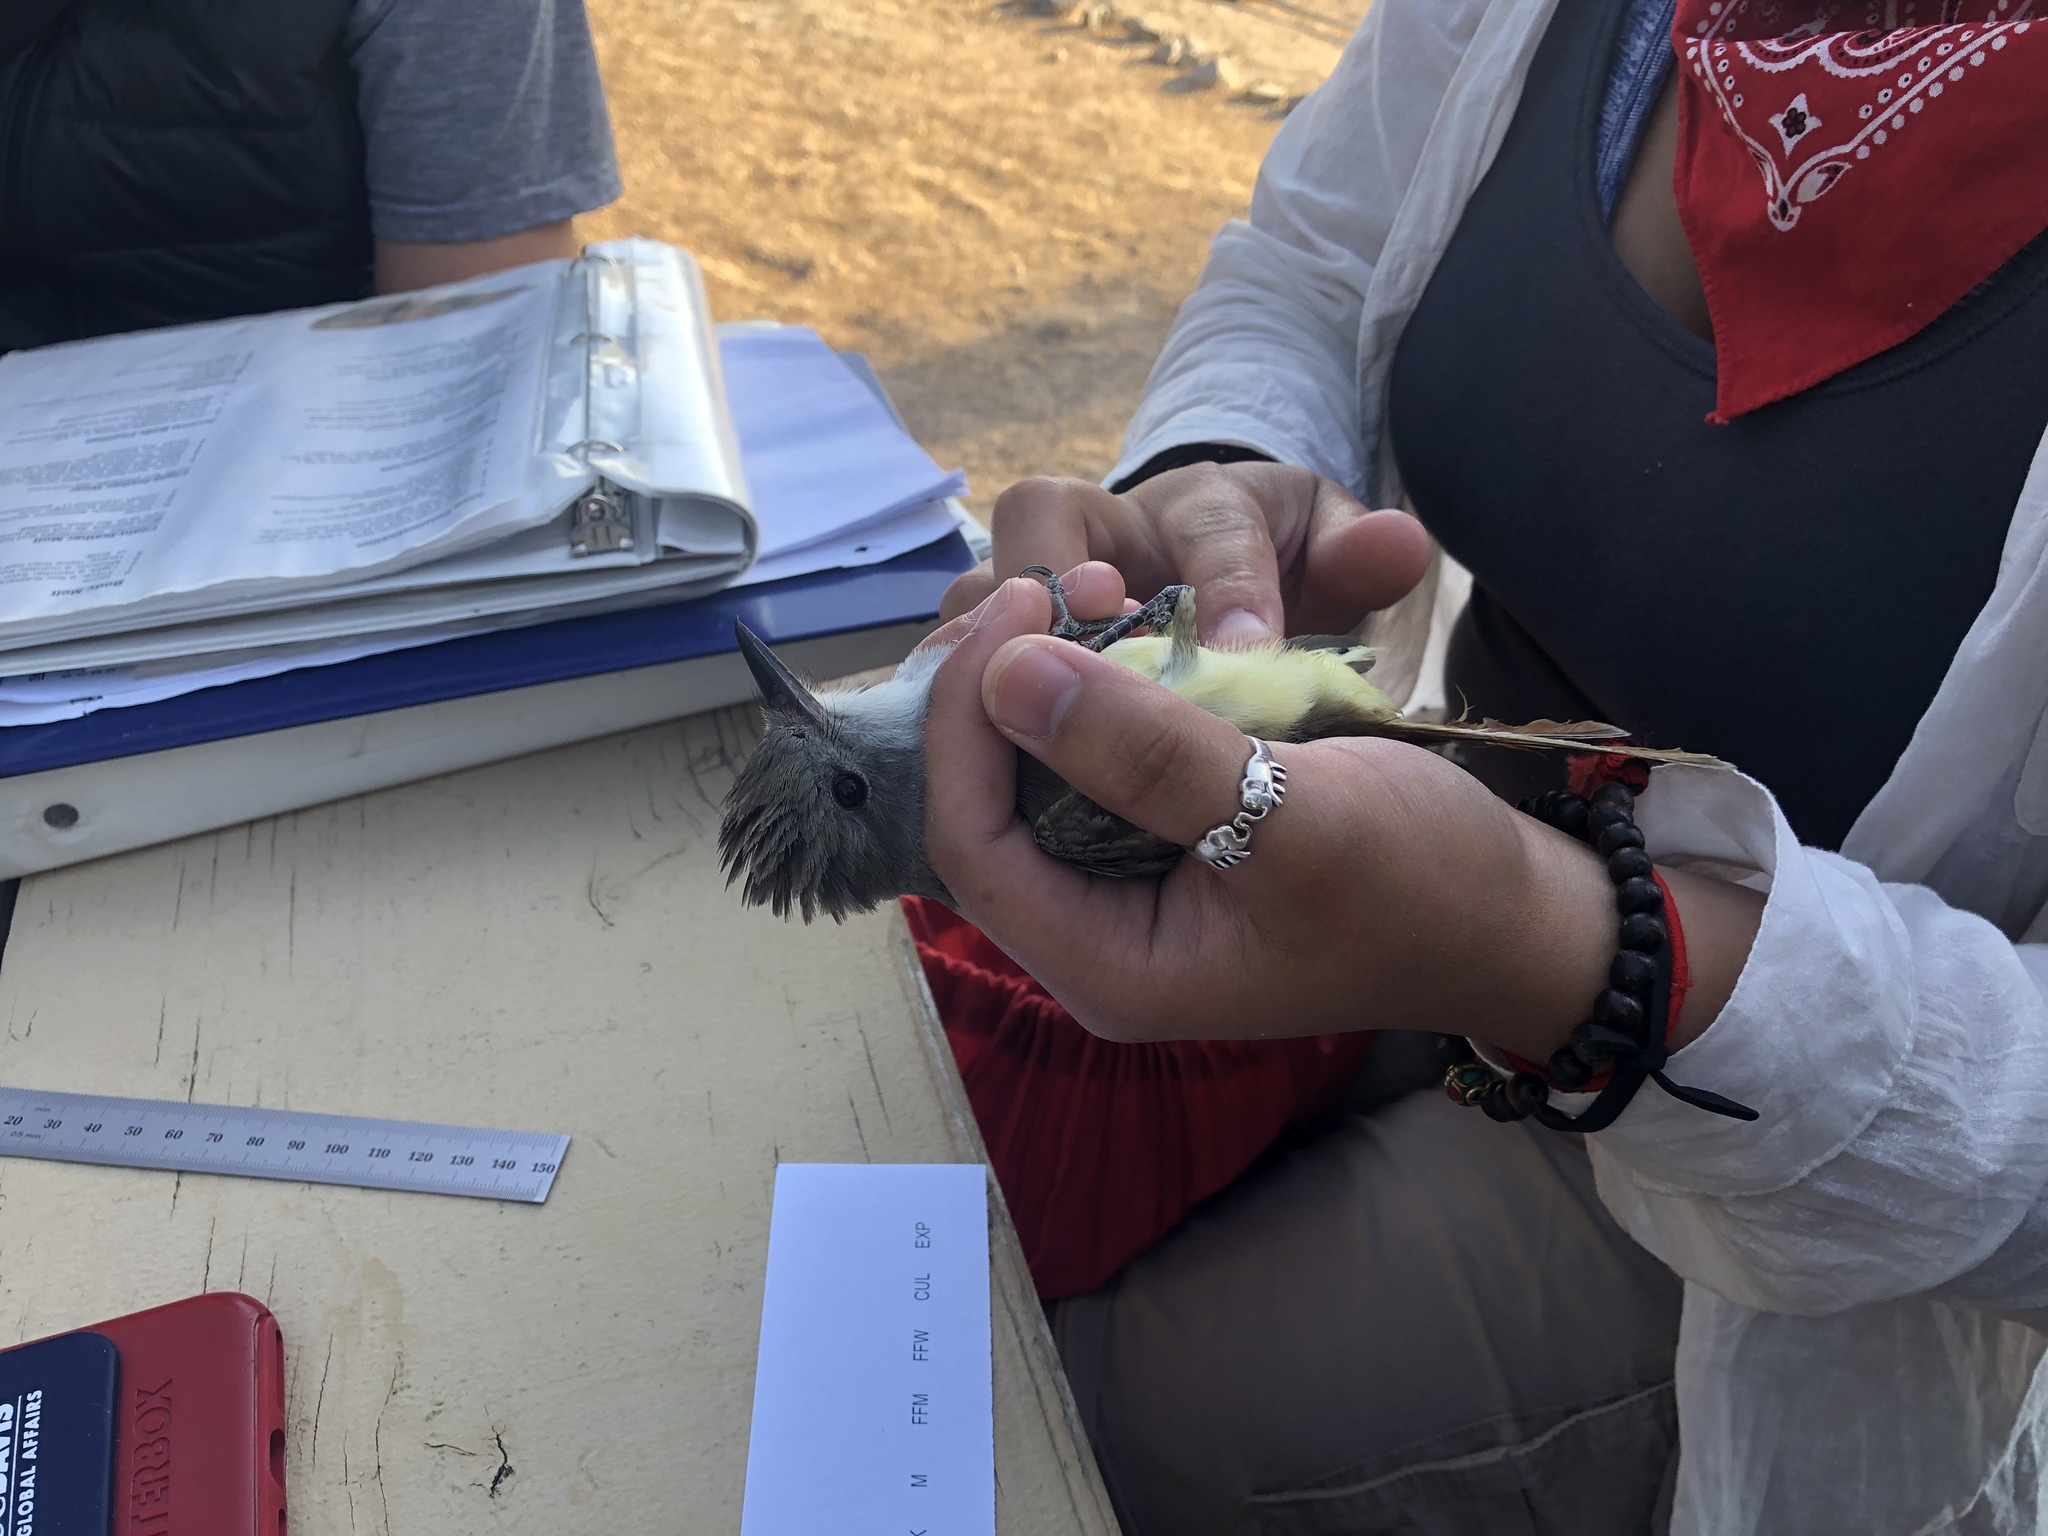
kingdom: Animalia
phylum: Chordata
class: Aves
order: Passeriformes
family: Tyrannidae
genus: Myiarchus
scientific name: Myiarchus cinerascens
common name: Ash-throated flycatcher
